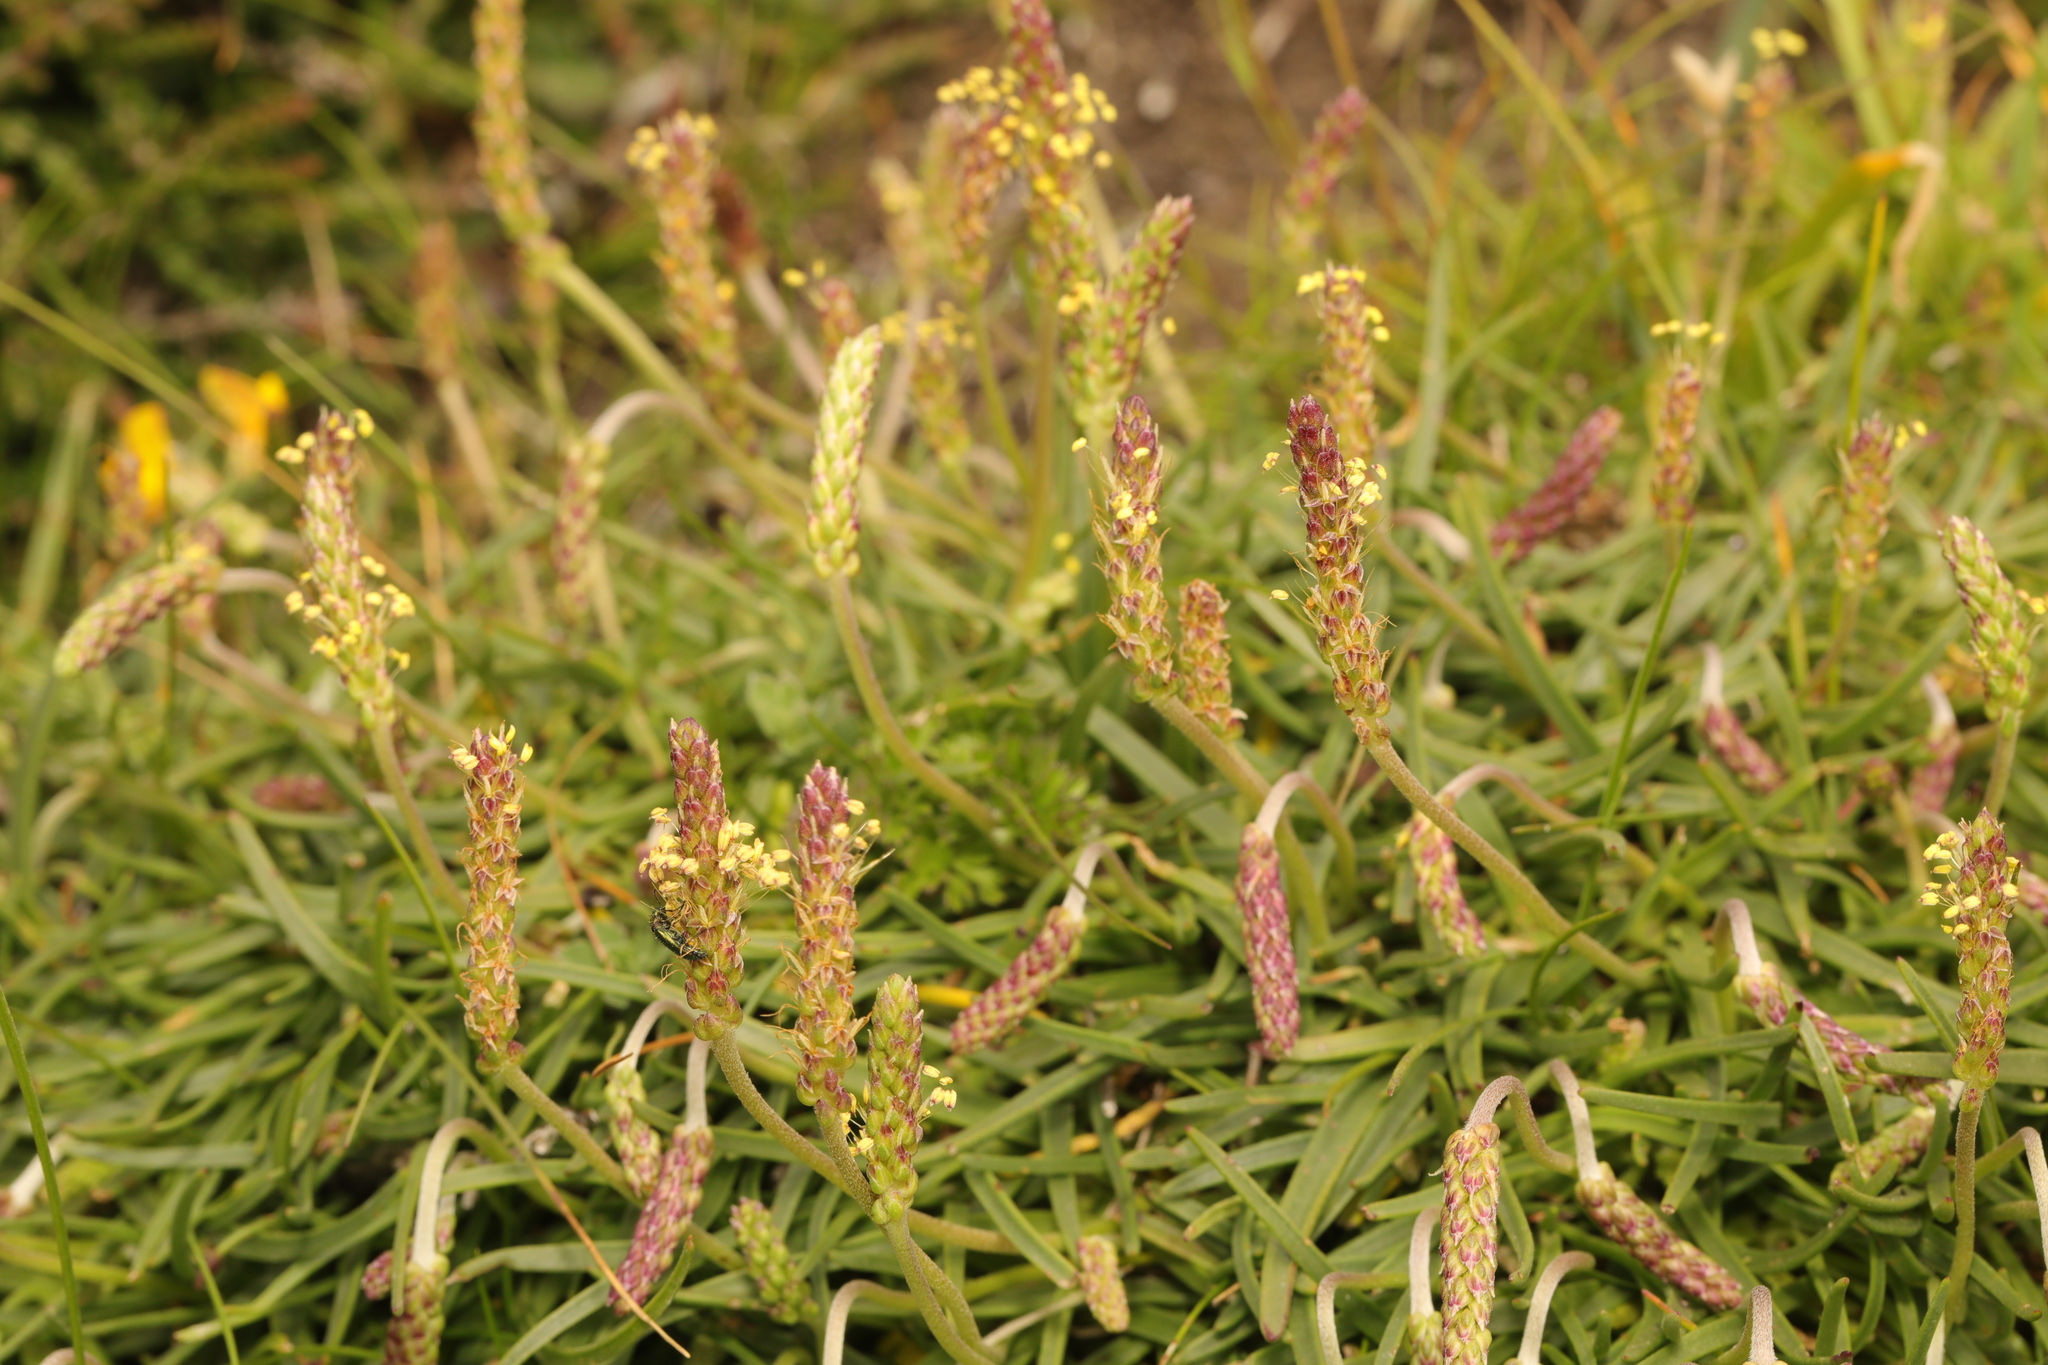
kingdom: Plantae
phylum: Tracheophyta
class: Magnoliopsida
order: Lamiales
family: Plantaginaceae
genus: Plantago
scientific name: Plantago maritima
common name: Sea plantain
